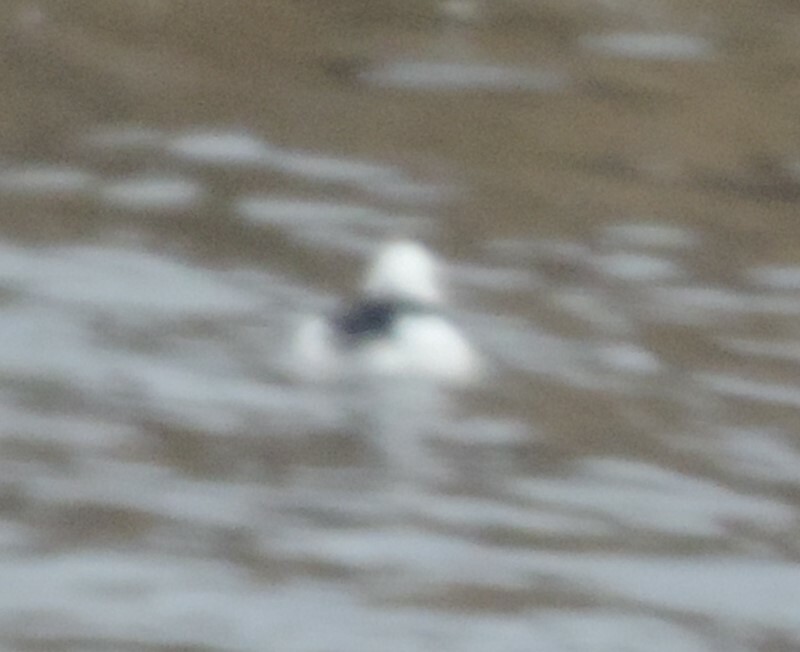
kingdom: Animalia
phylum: Chordata
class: Aves
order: Anseriformes
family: Anatidae
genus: Bucephala
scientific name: Bucephala albeola
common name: Bufflehead
